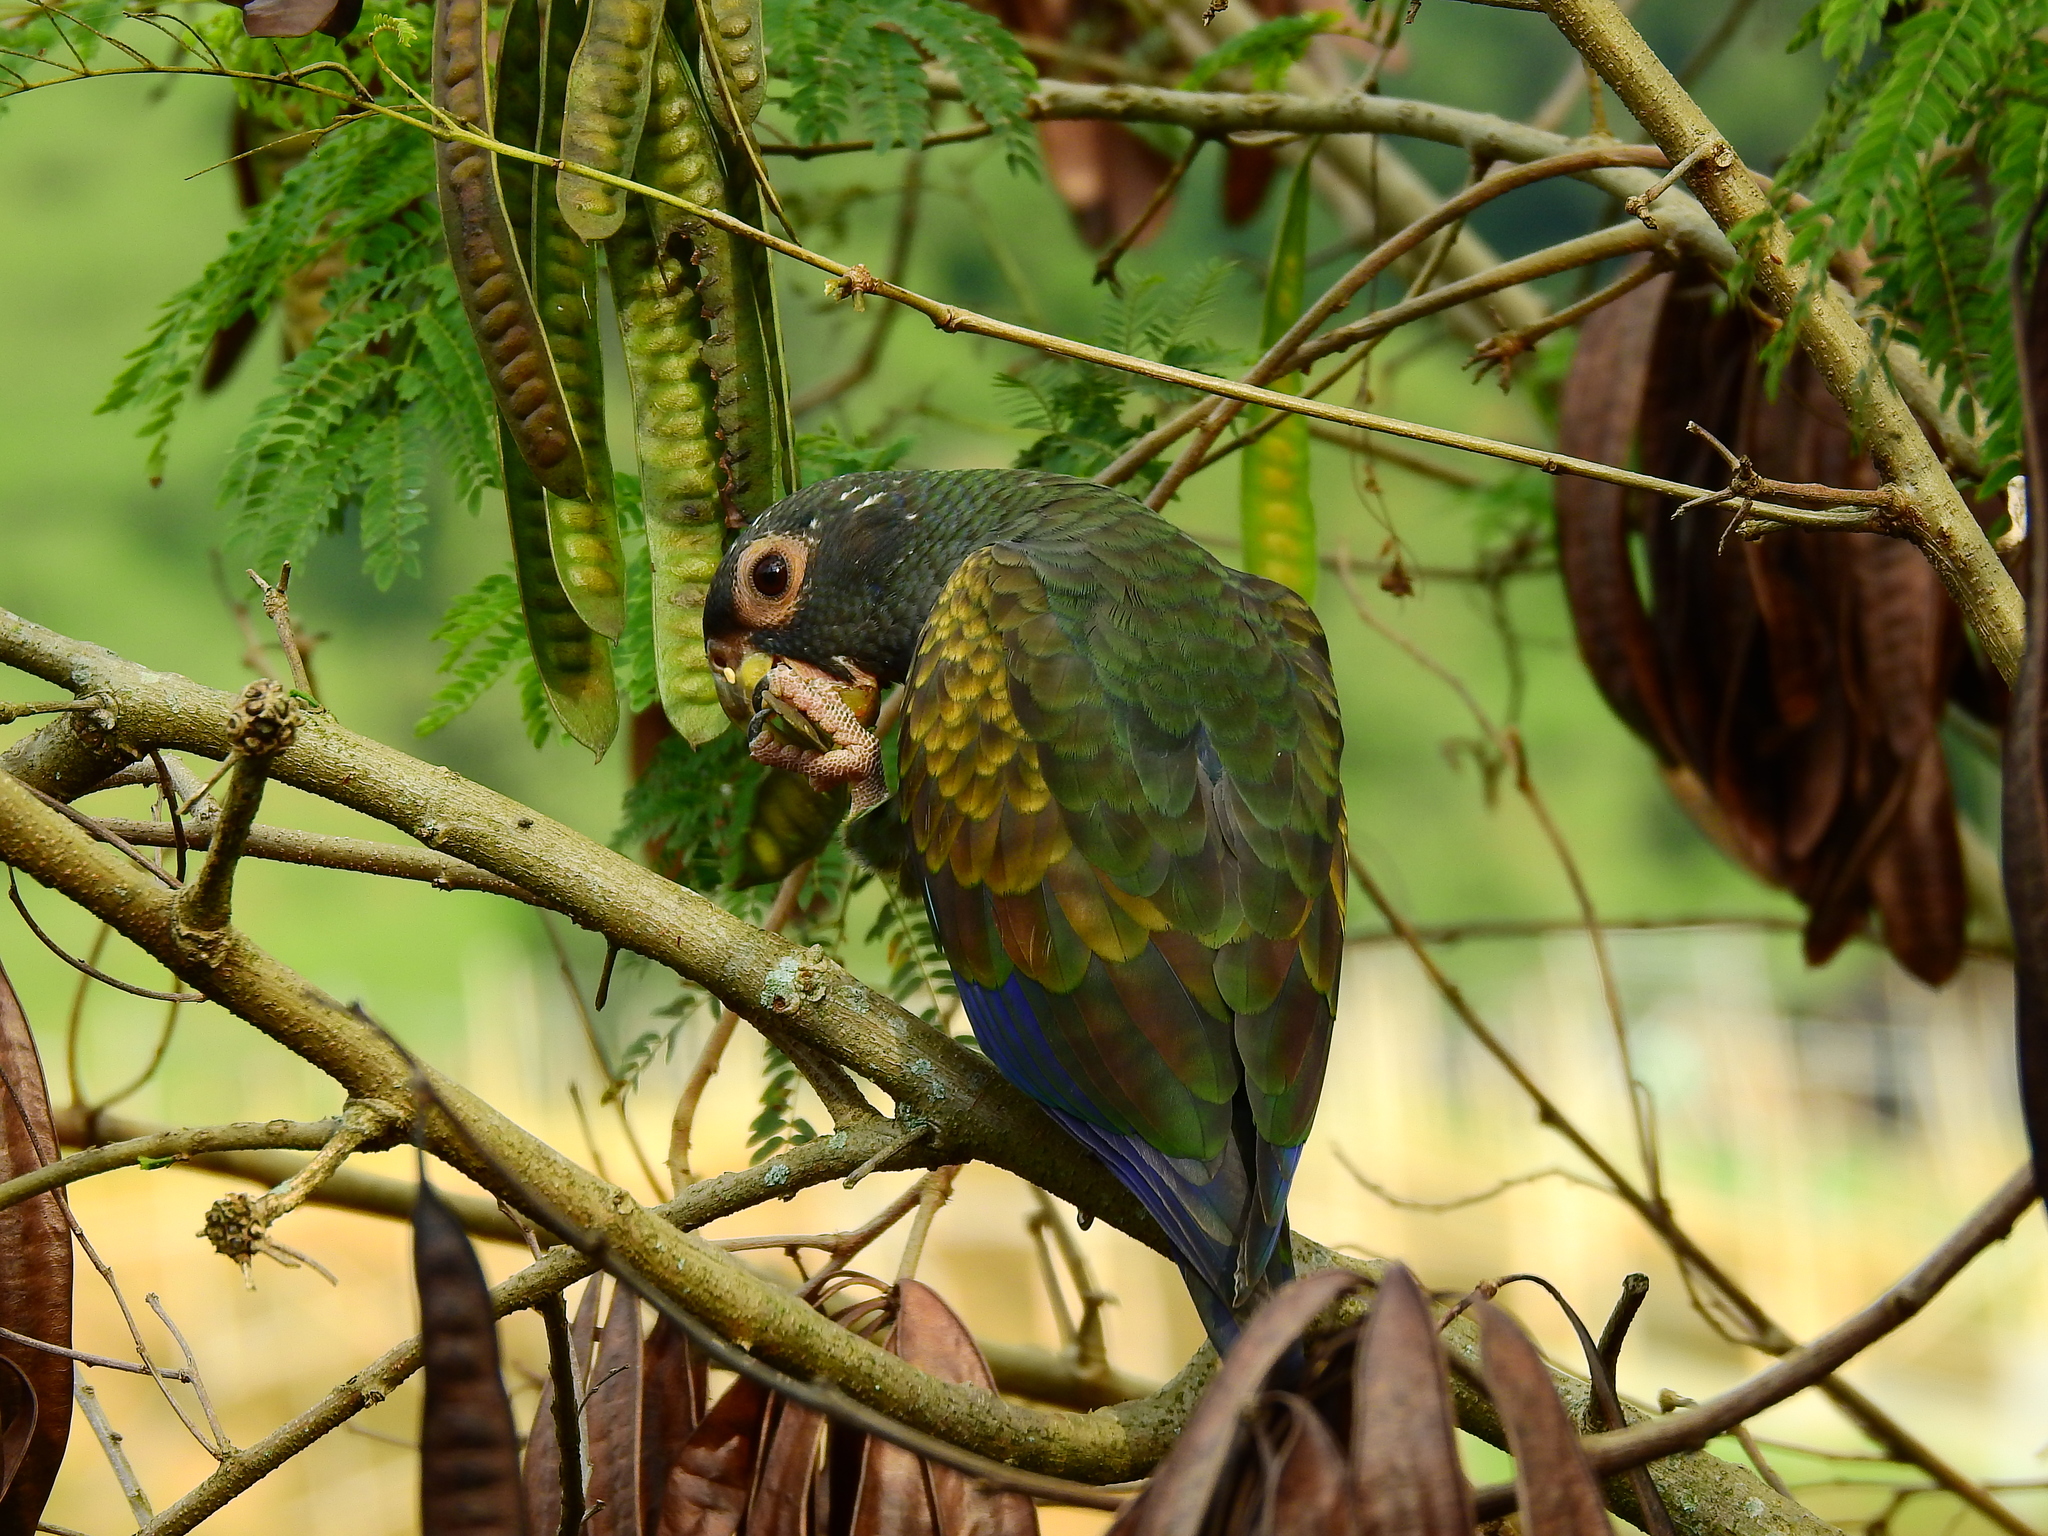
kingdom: Animalia
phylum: Chordata
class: Aves
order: Psittaciformes
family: Psittacidae
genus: Pionus
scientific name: Pionus chalcopterus
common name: Bronze-winged parrot
